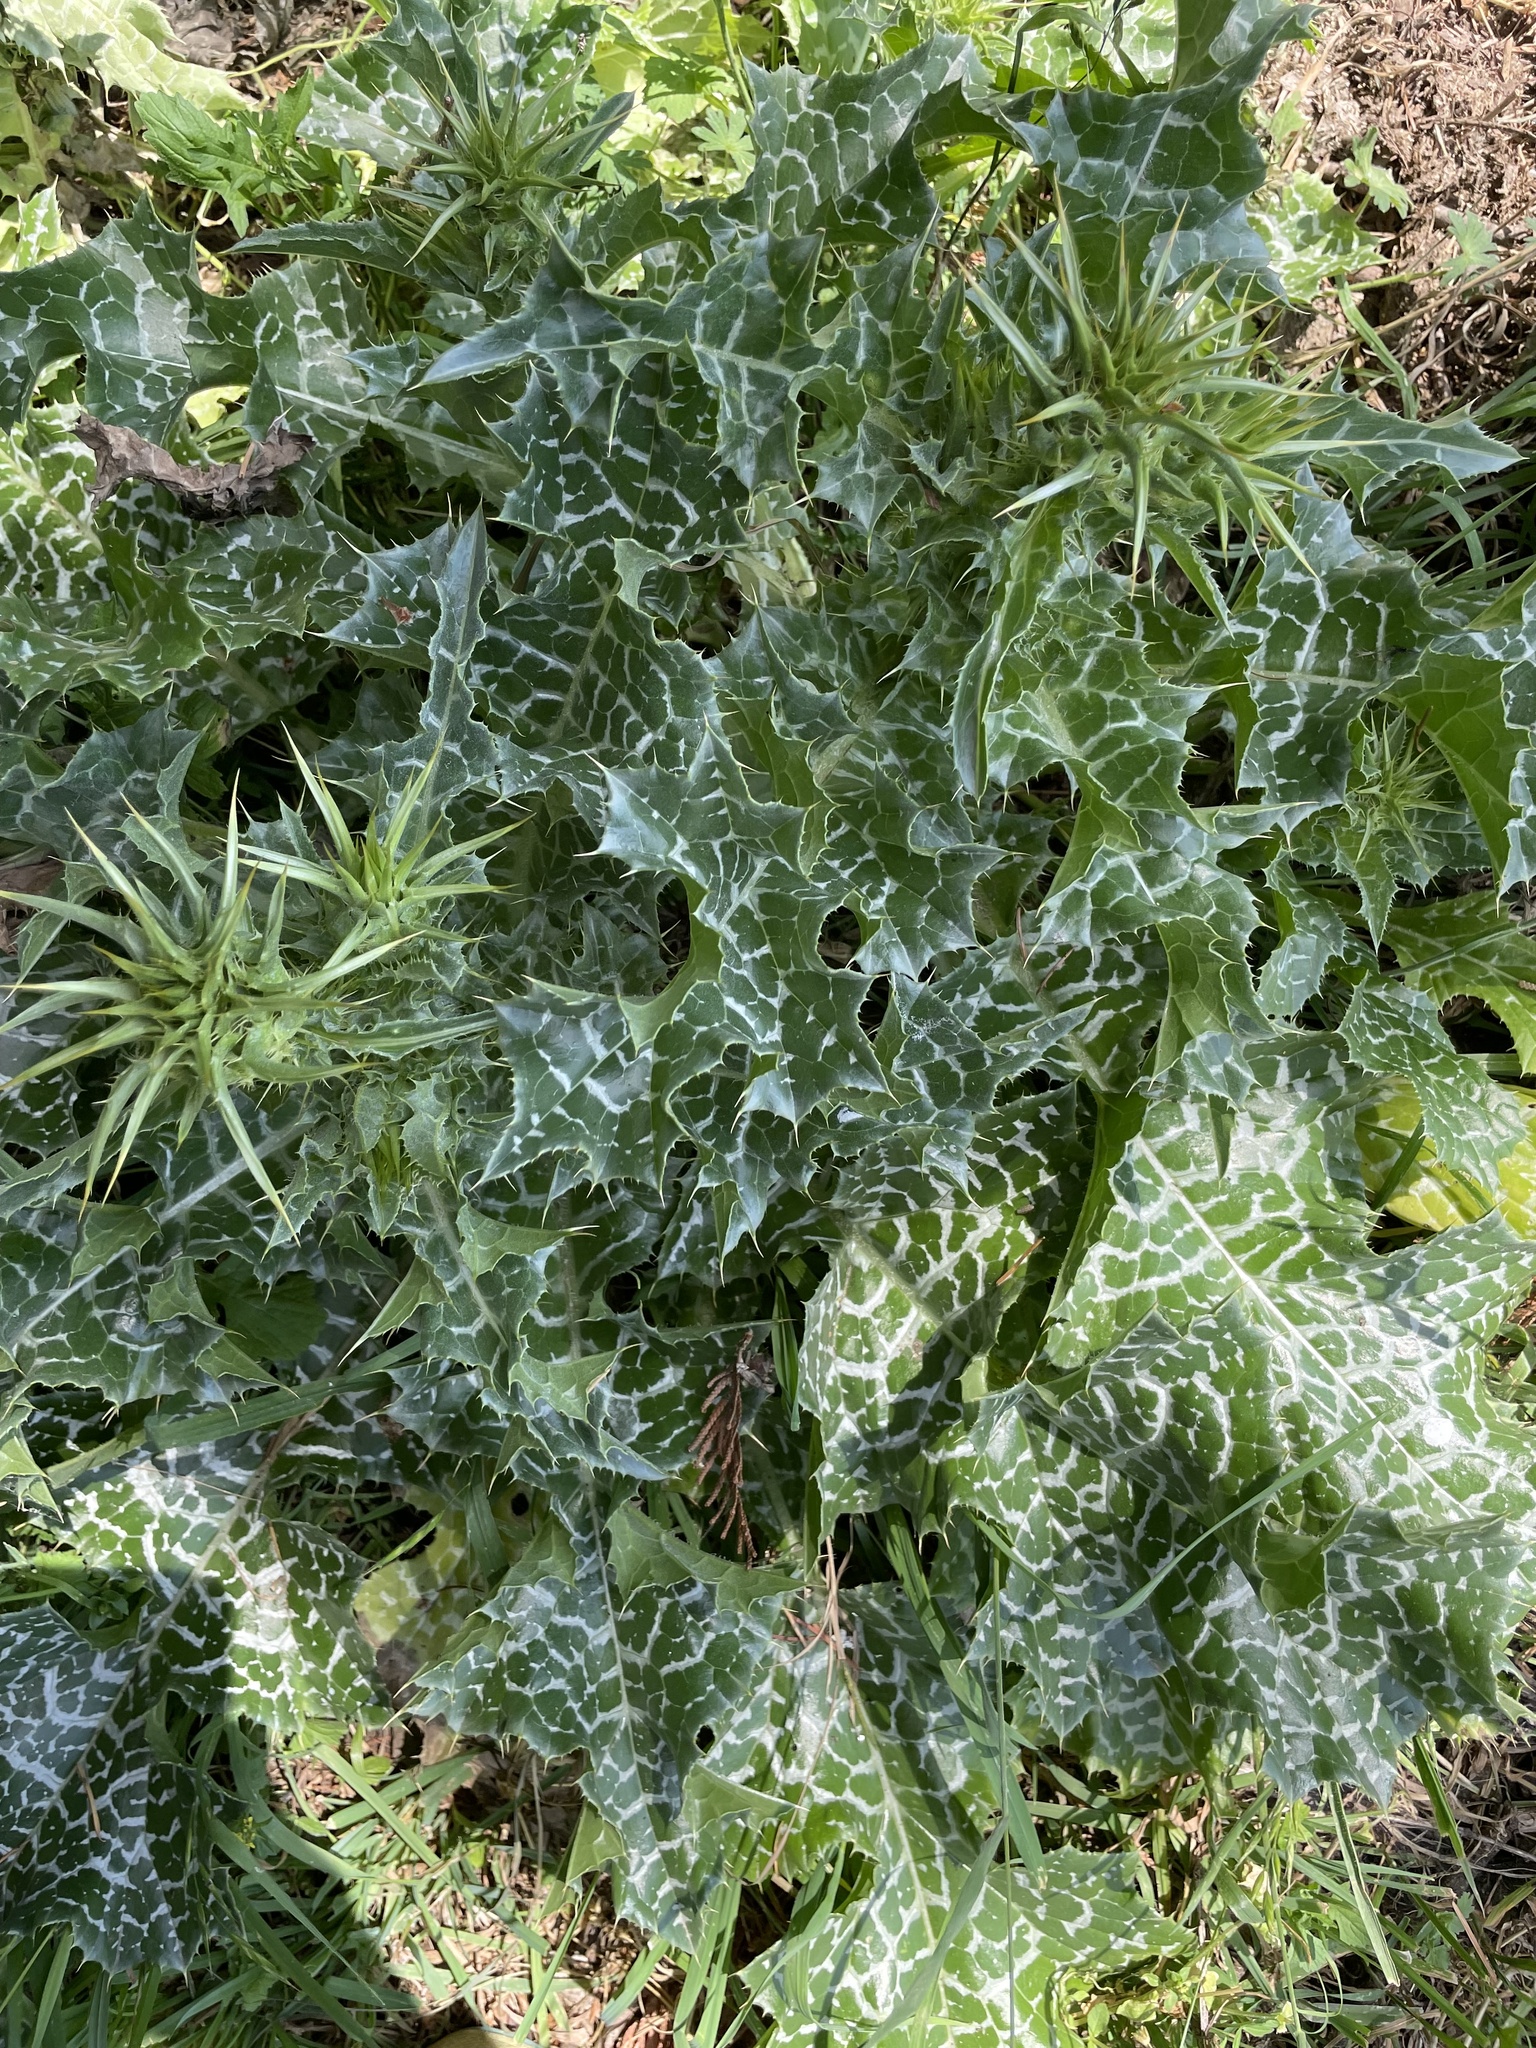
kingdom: Plantae
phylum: Tracheophyta
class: Magnoliopsida
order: Asterales
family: Asteraceae
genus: Silybum
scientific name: Silybum marianum
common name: Milk thistle
